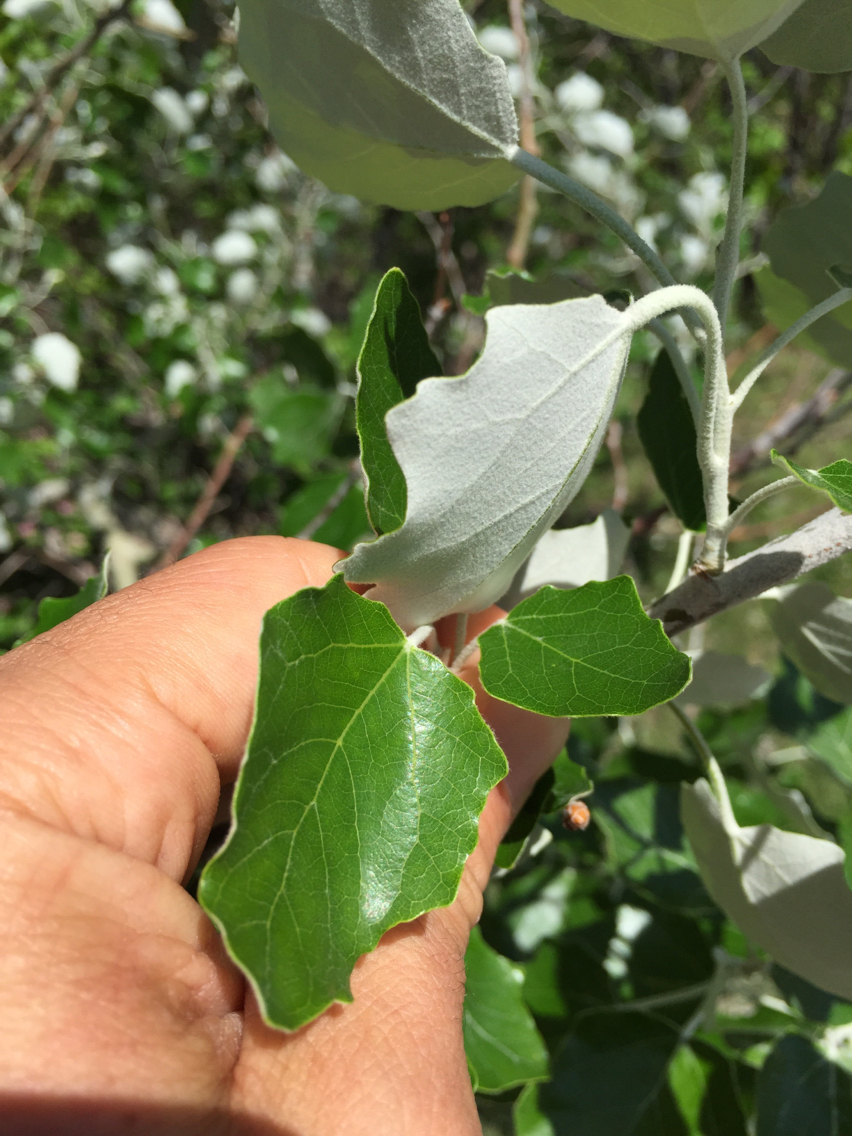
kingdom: Plantae
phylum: Tracheophyta
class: Magnoliopsida
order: Malpighiales
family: Salicaceae
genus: Populus
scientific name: Populus alba
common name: White poplar
